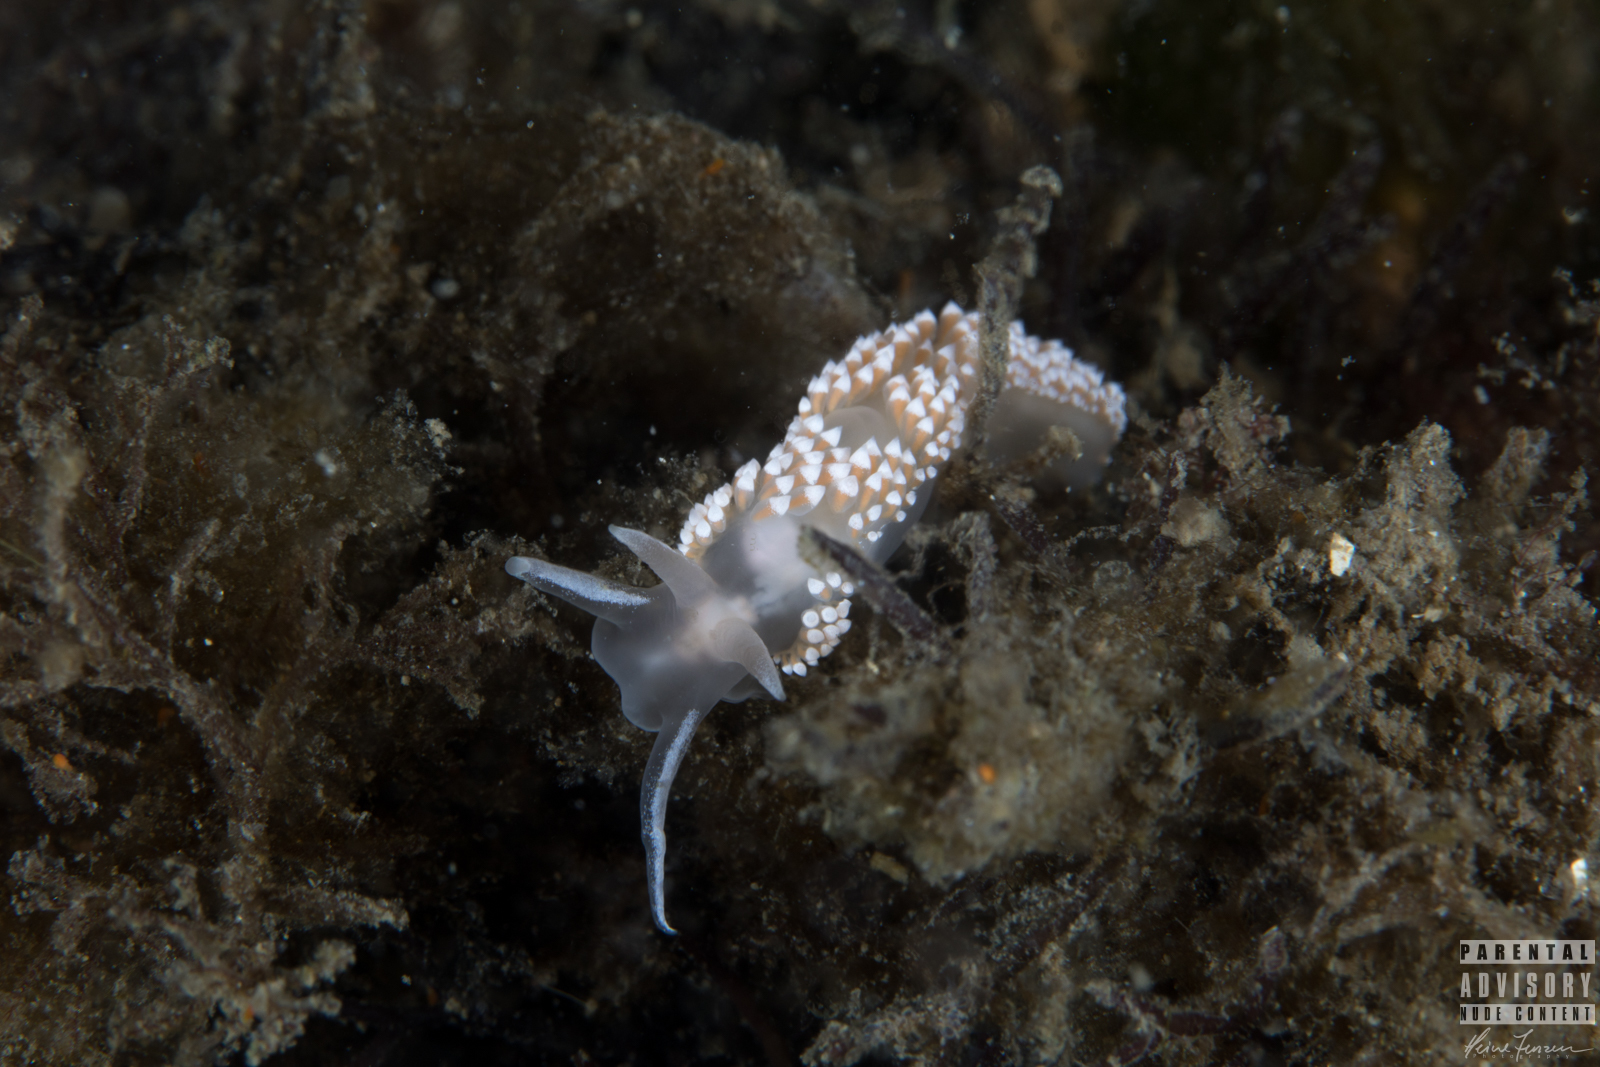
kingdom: Animalia
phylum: Mollusca
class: Gastropoda
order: Nudibranchia
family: Coryphellidae
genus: Coryphella
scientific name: Coryphella verrucosa
